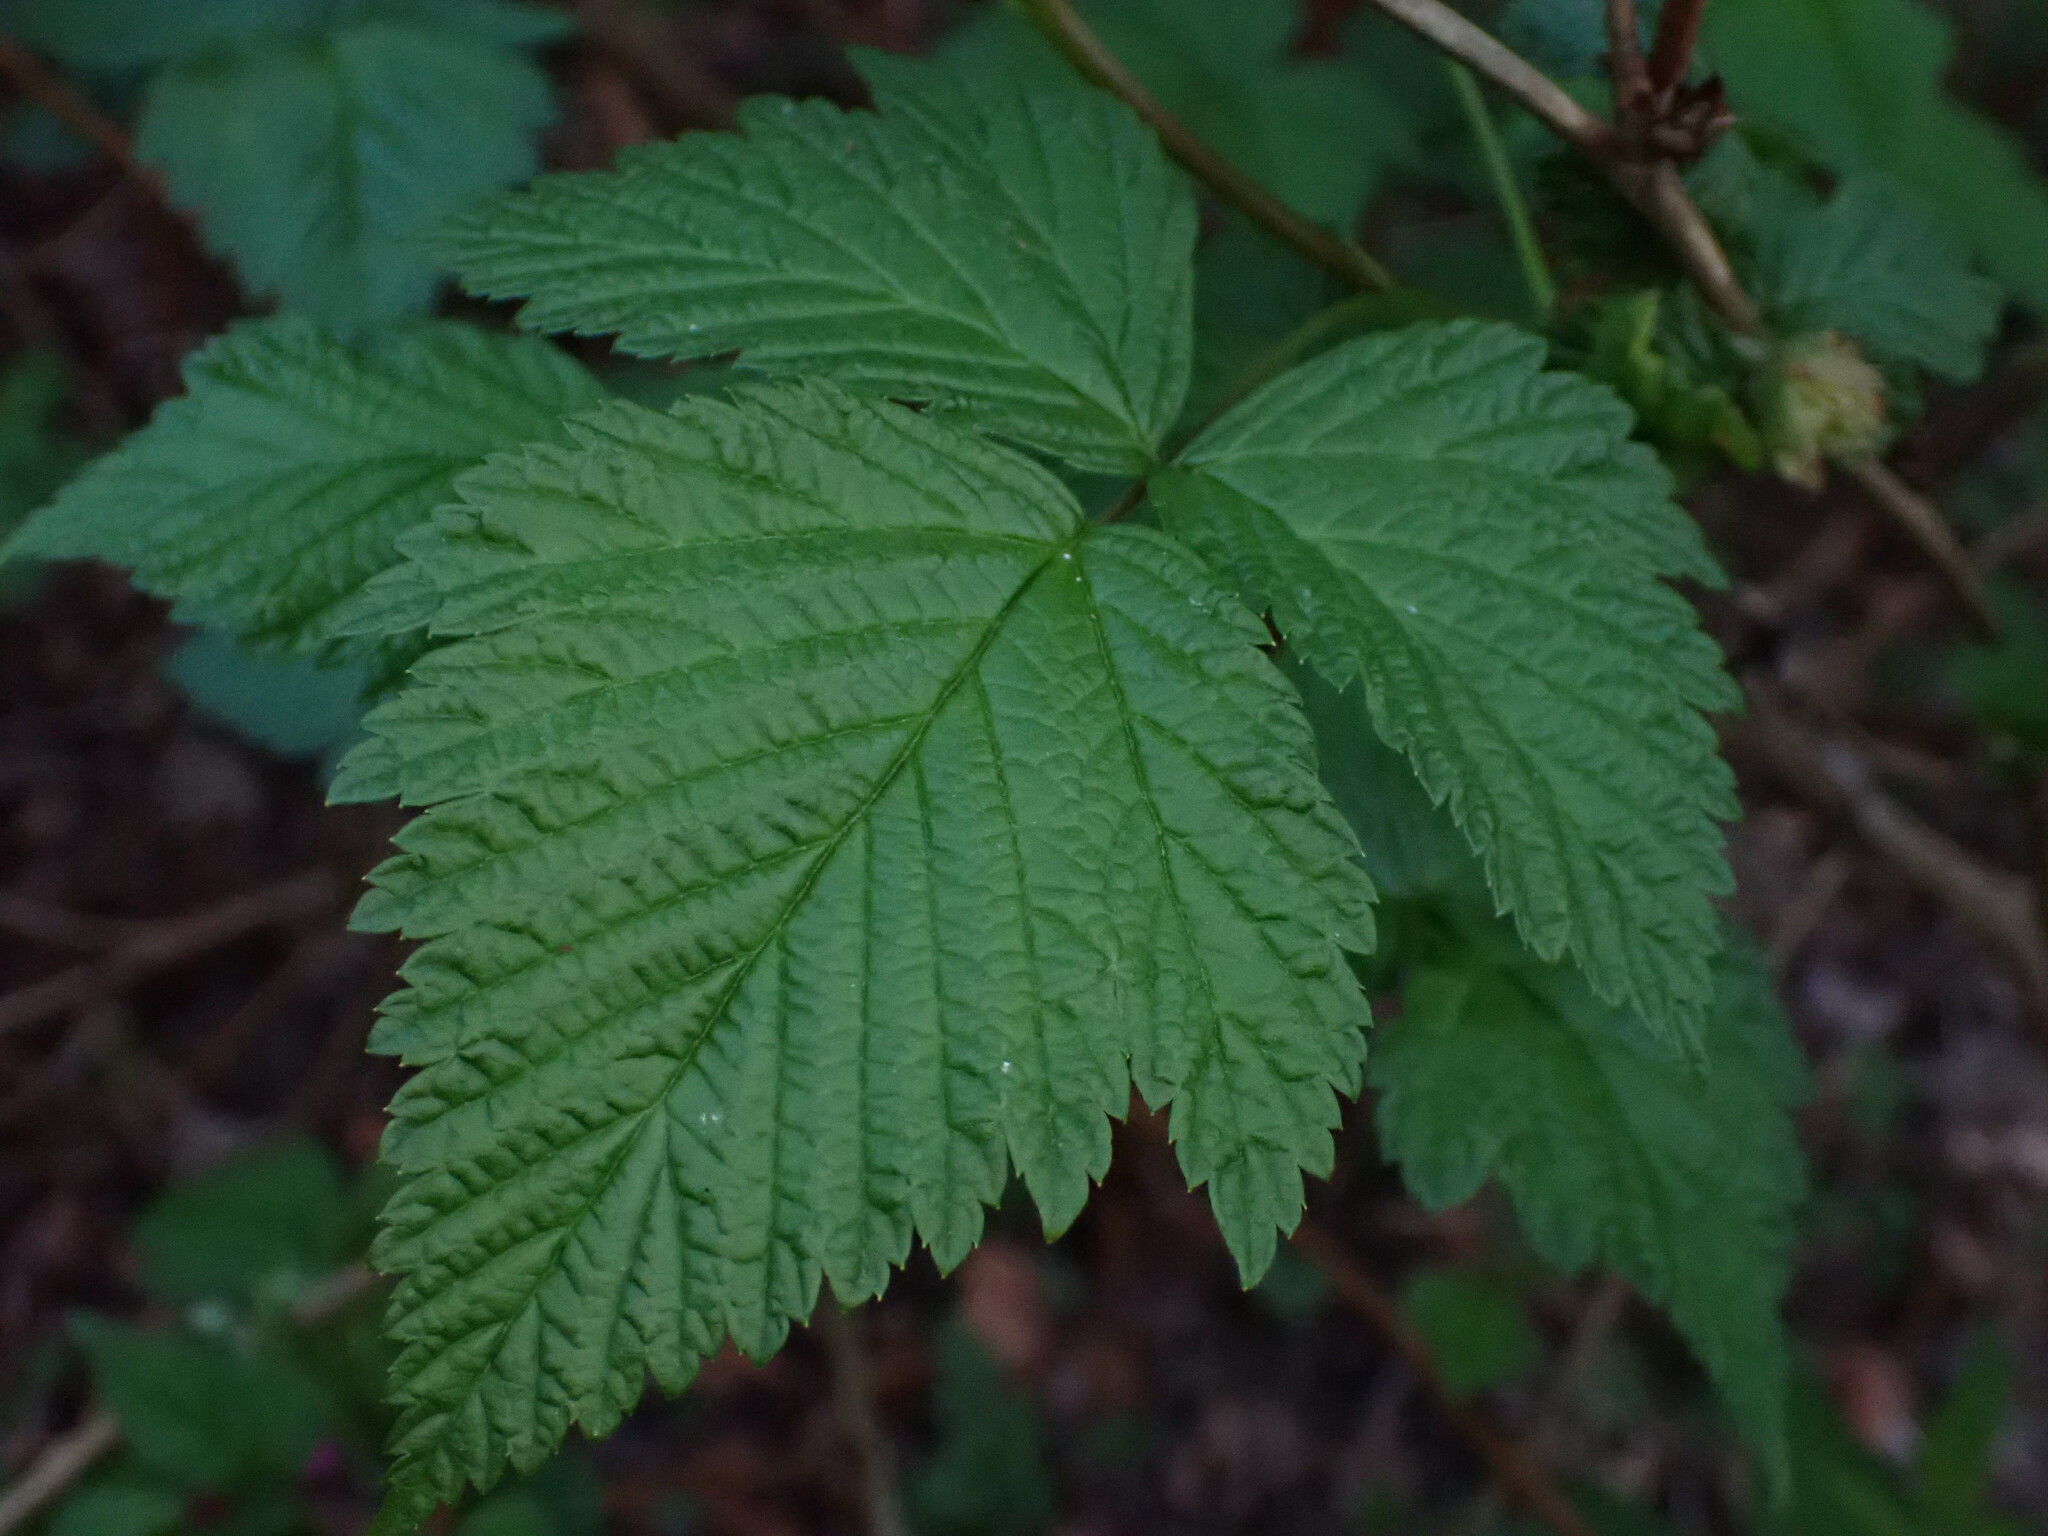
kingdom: Plantae
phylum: Tracheophyta
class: Magnoliopsida
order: Rosales
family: Rosaceae
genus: Rubus
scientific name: Rubus spectabilis
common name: Salmonberry
